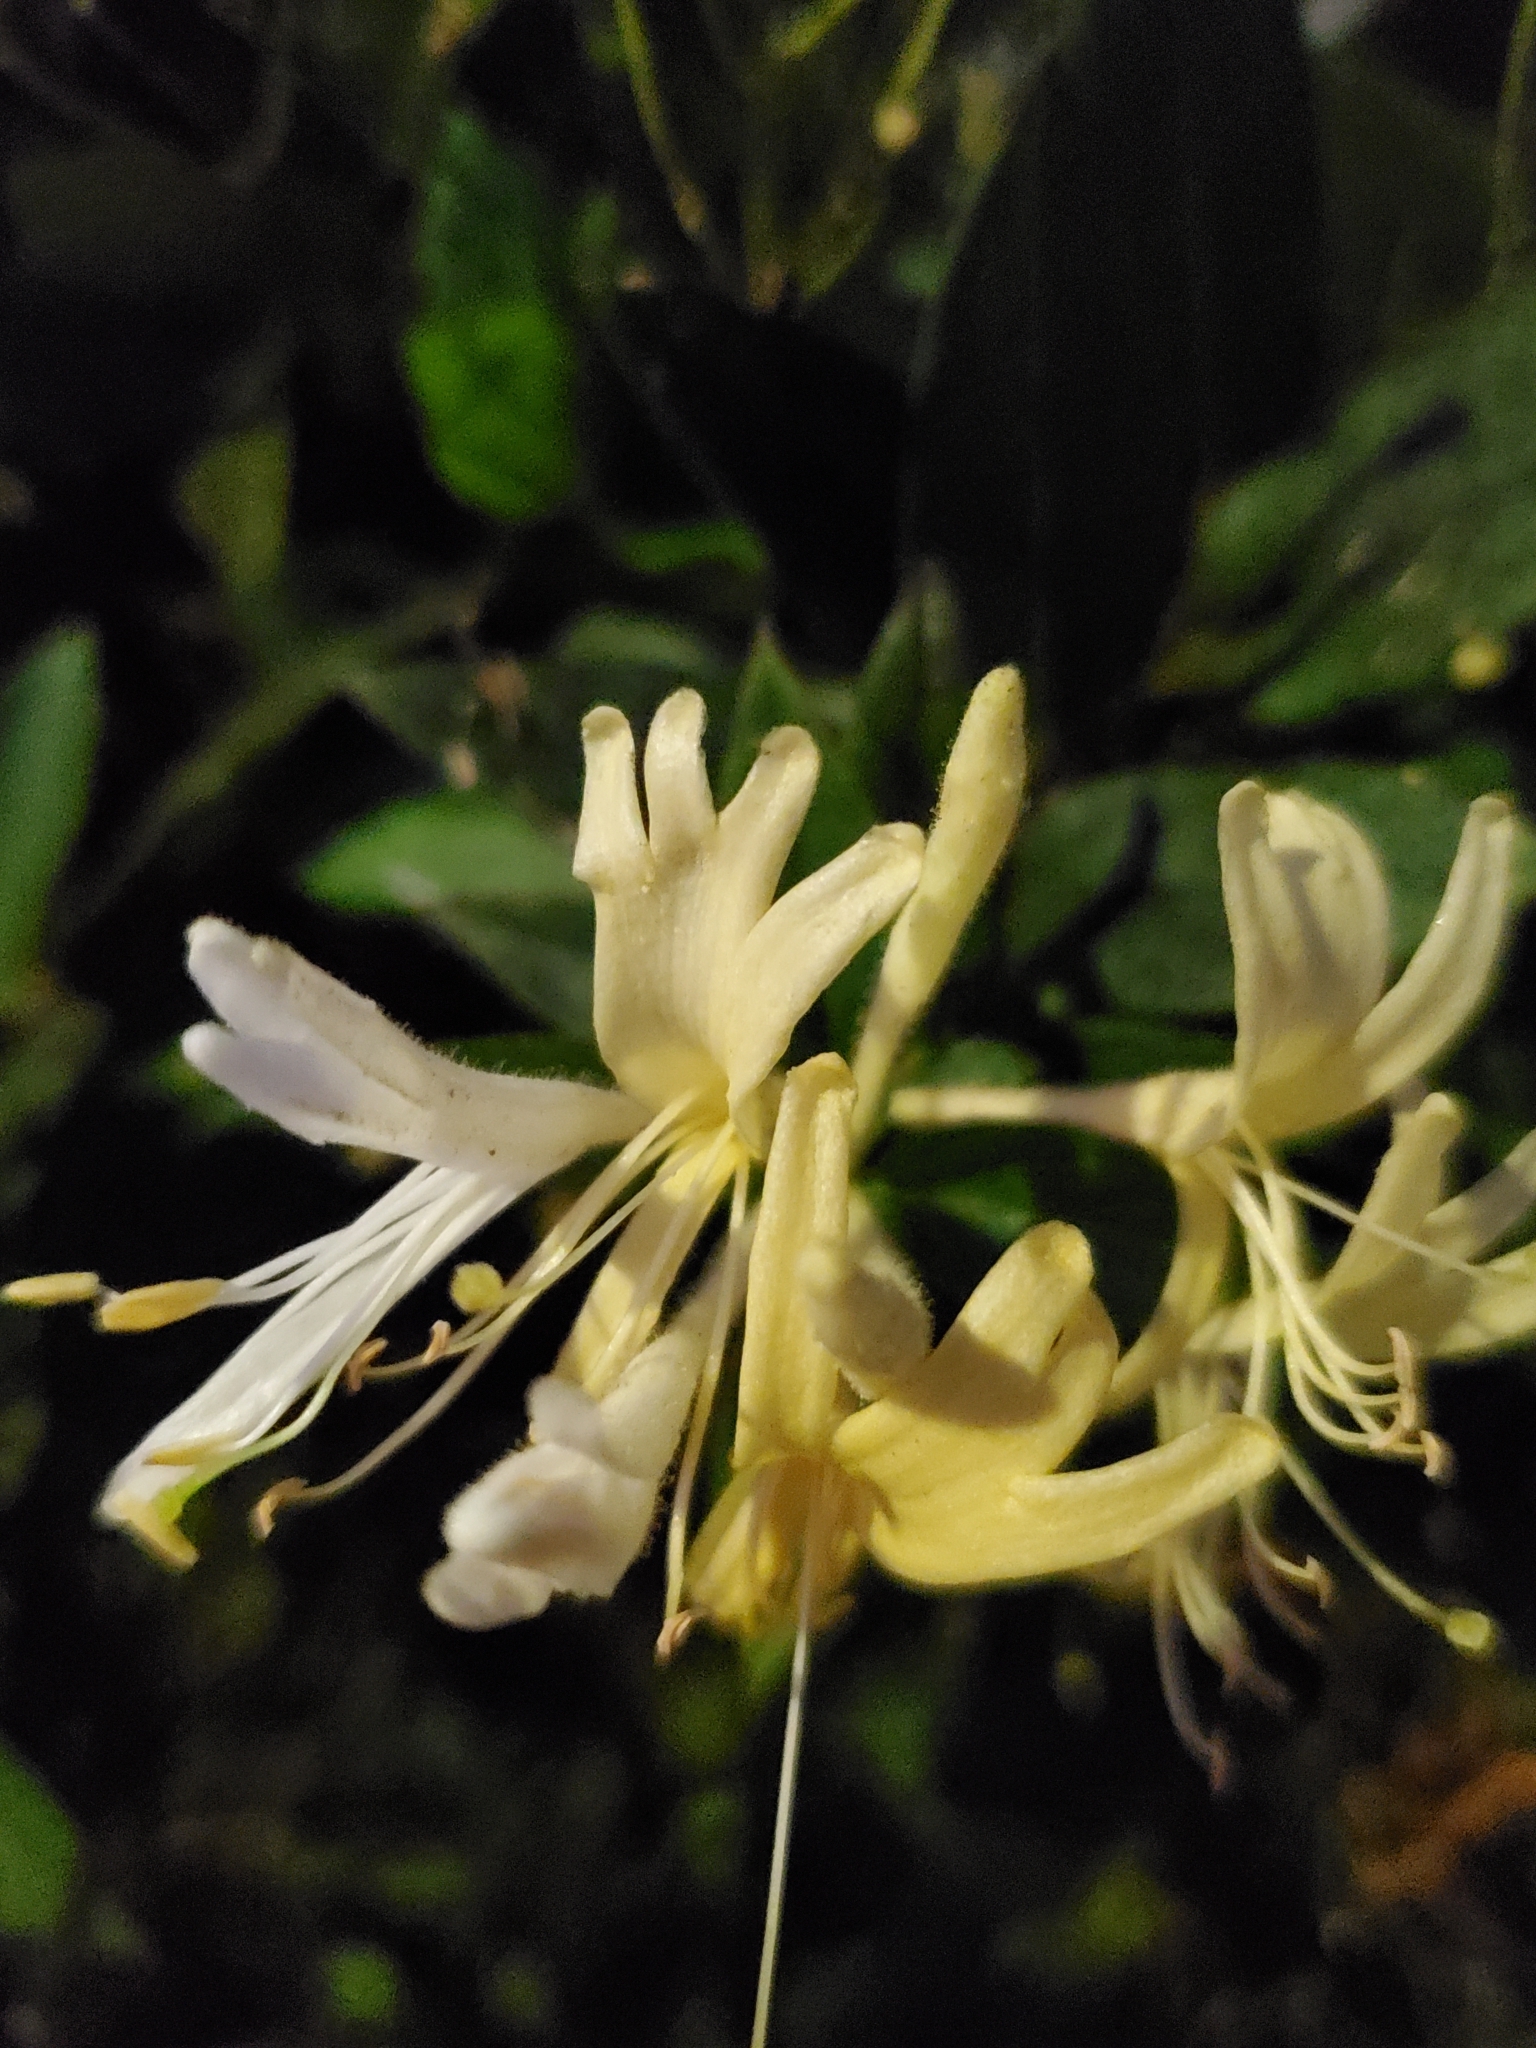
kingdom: Plantae
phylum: Tracheophyta
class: Magnoliopsida
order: Dipsacales
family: Caprifoliaceae
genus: Lonicera
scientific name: Lonicera japonica
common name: Japanese honeysuckle
